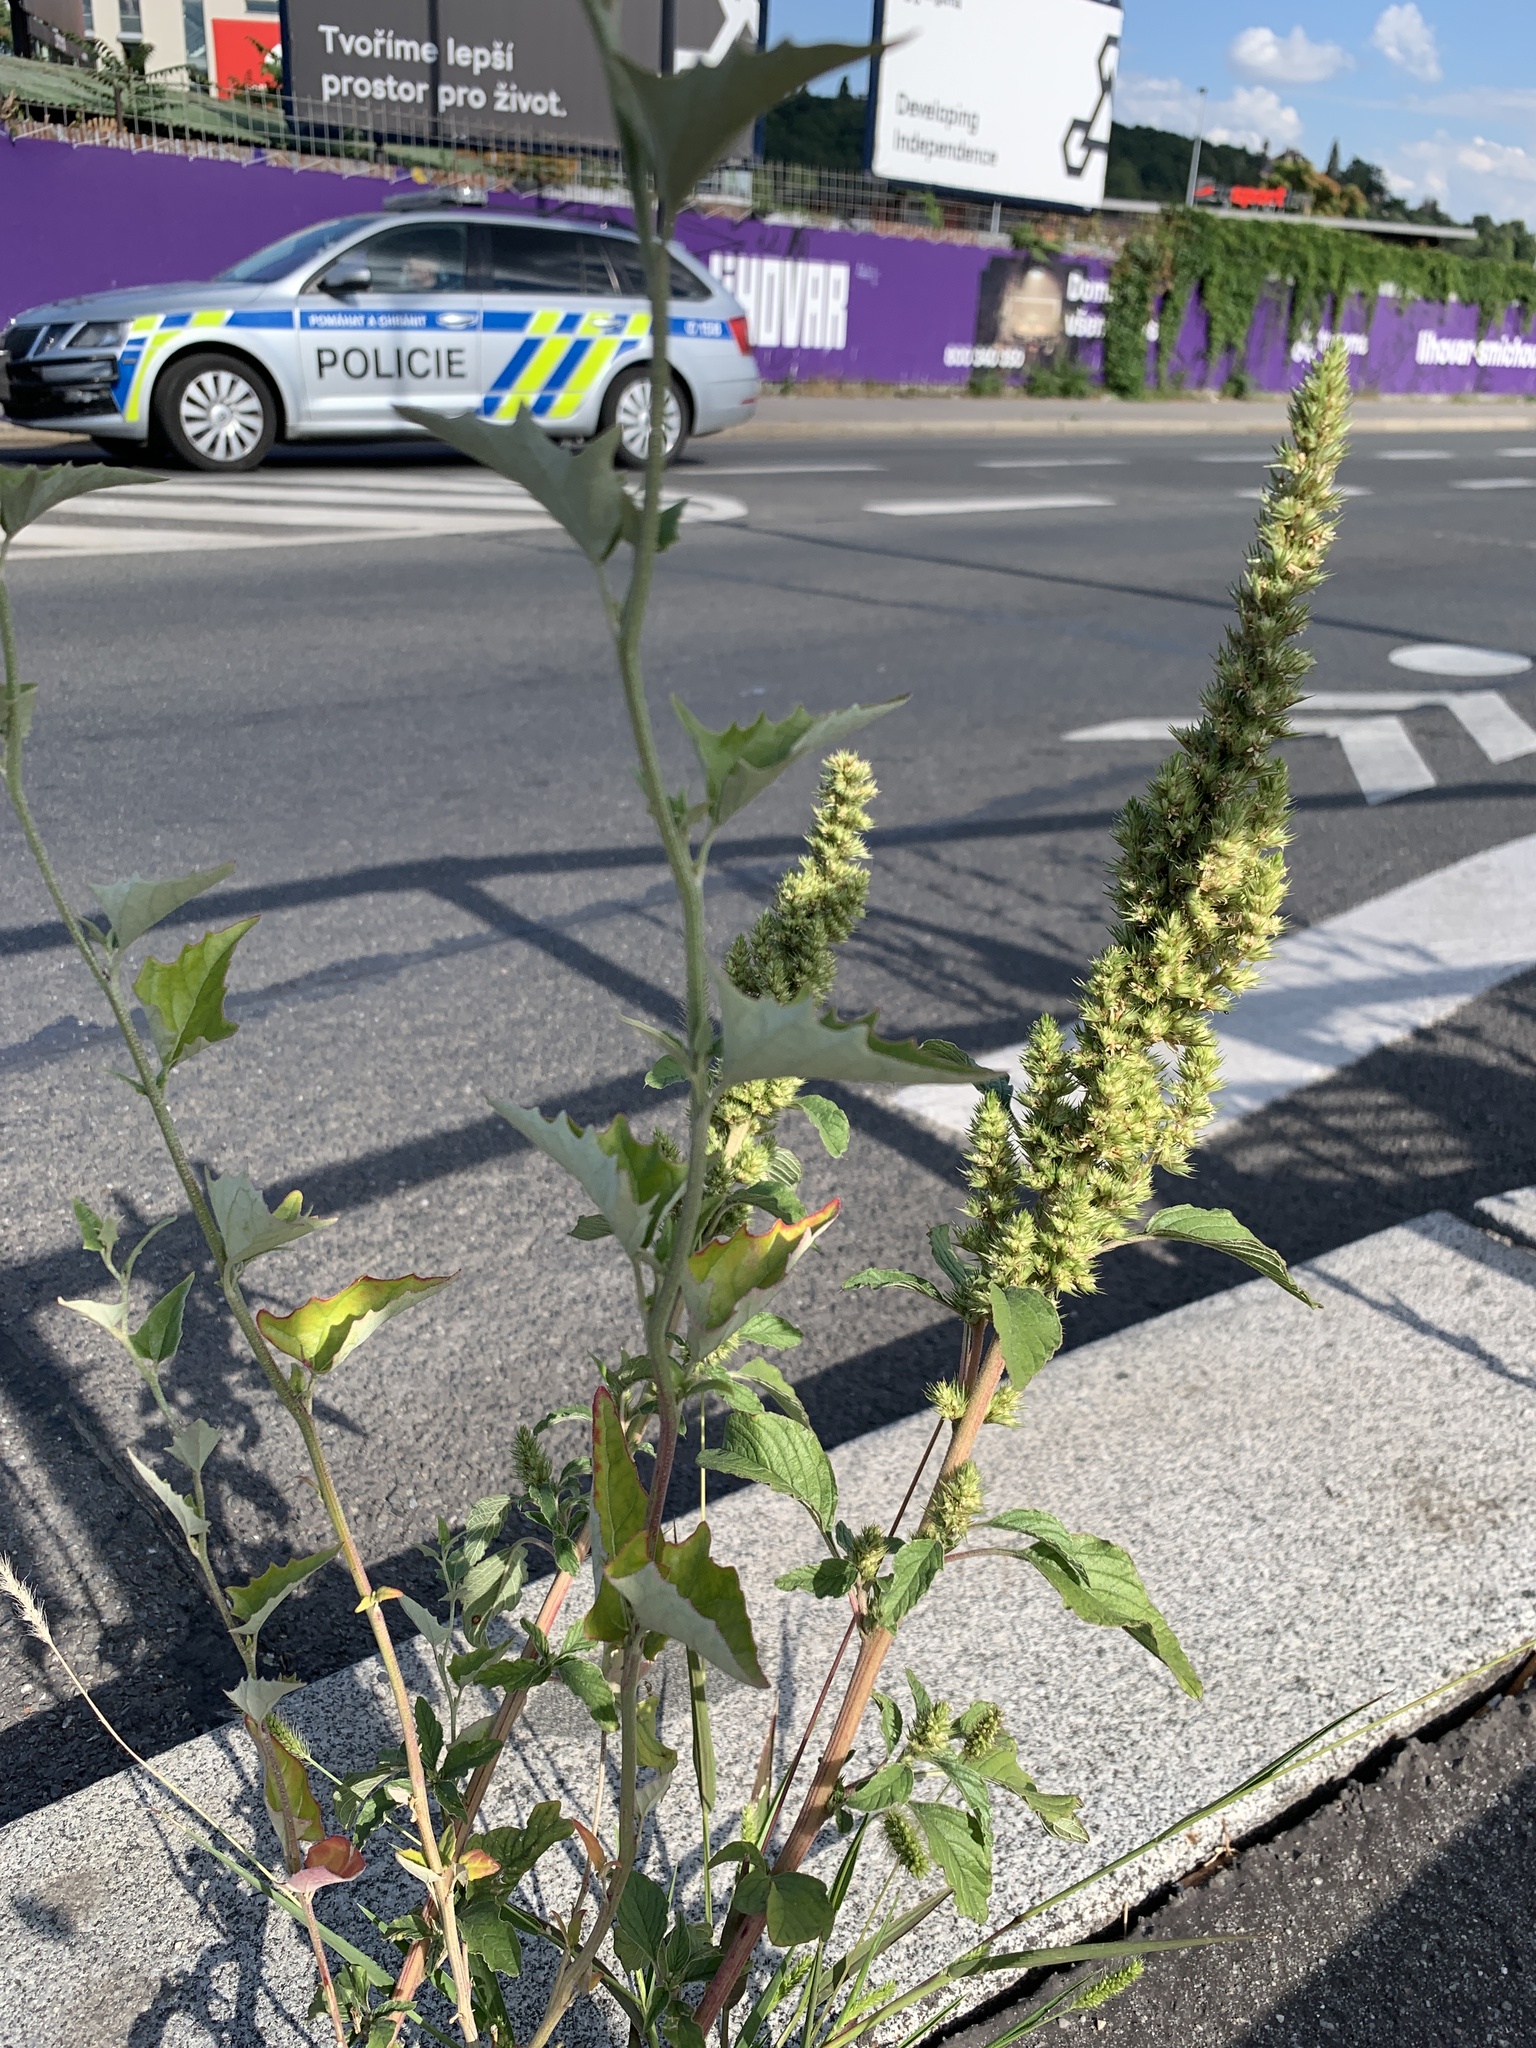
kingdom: Plantae
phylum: Tracheophyta
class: Magnoliopsida
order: Caryophyllales
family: Amaranthaceae
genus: Amaranthus
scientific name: Amaranthus retroflexus
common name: Redroot amaranth
